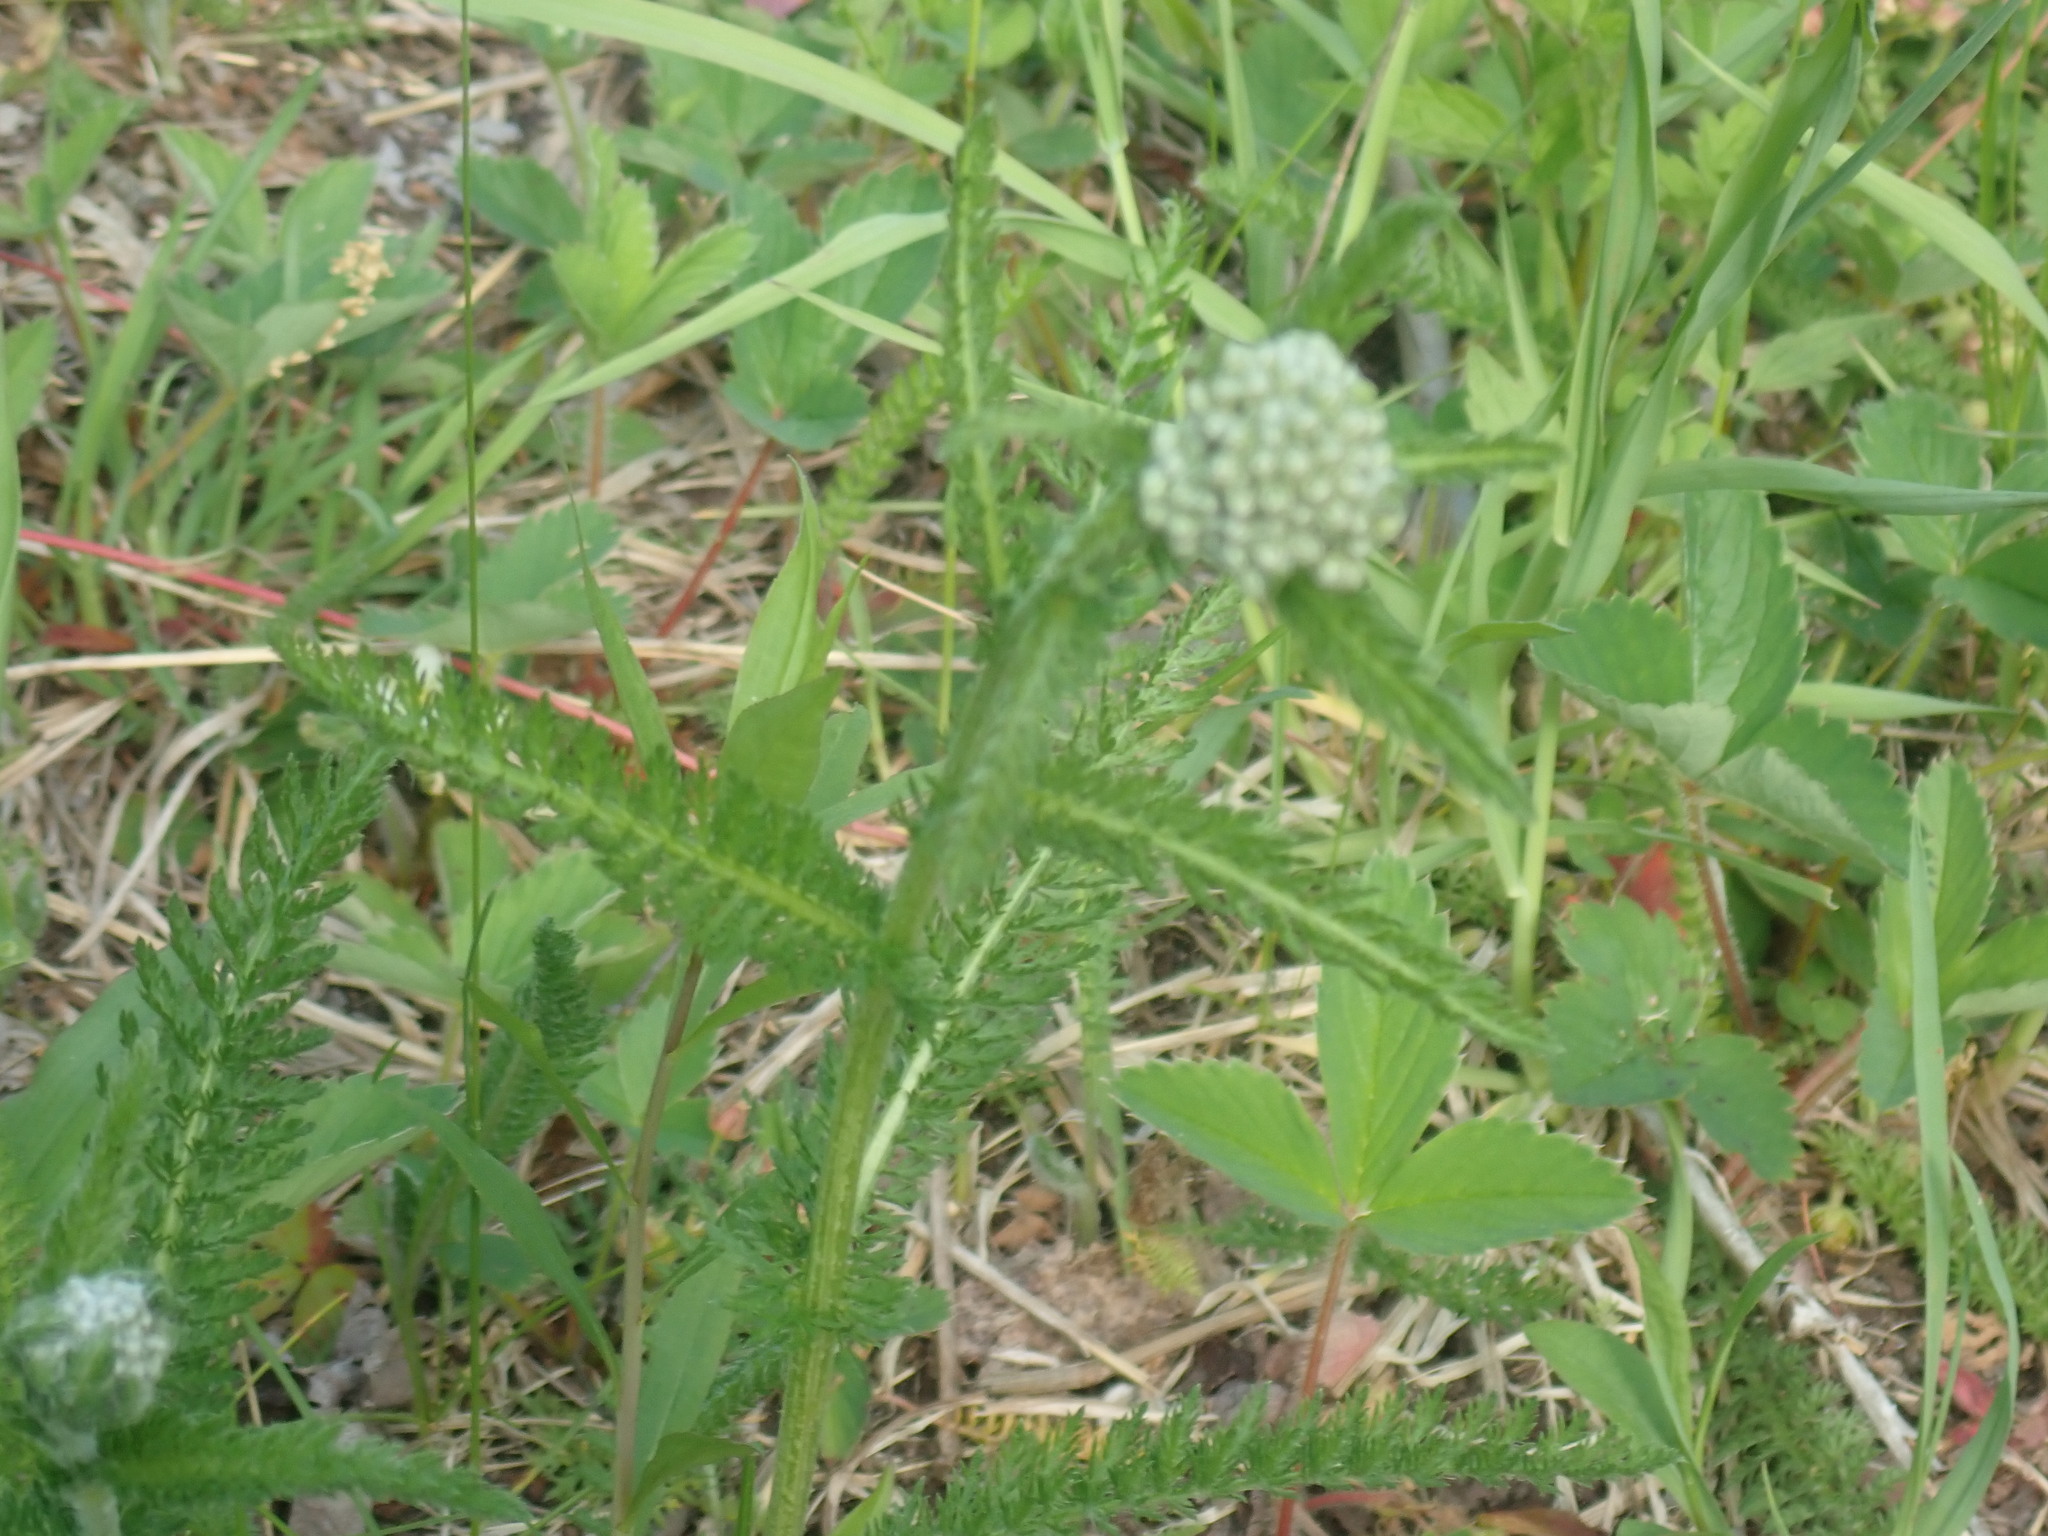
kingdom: Plantae
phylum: Tracheophyta
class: Magnoliopsida
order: Asterales
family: Asteraceae
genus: Achillea
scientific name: Achillea millefolium
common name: Yarrow
